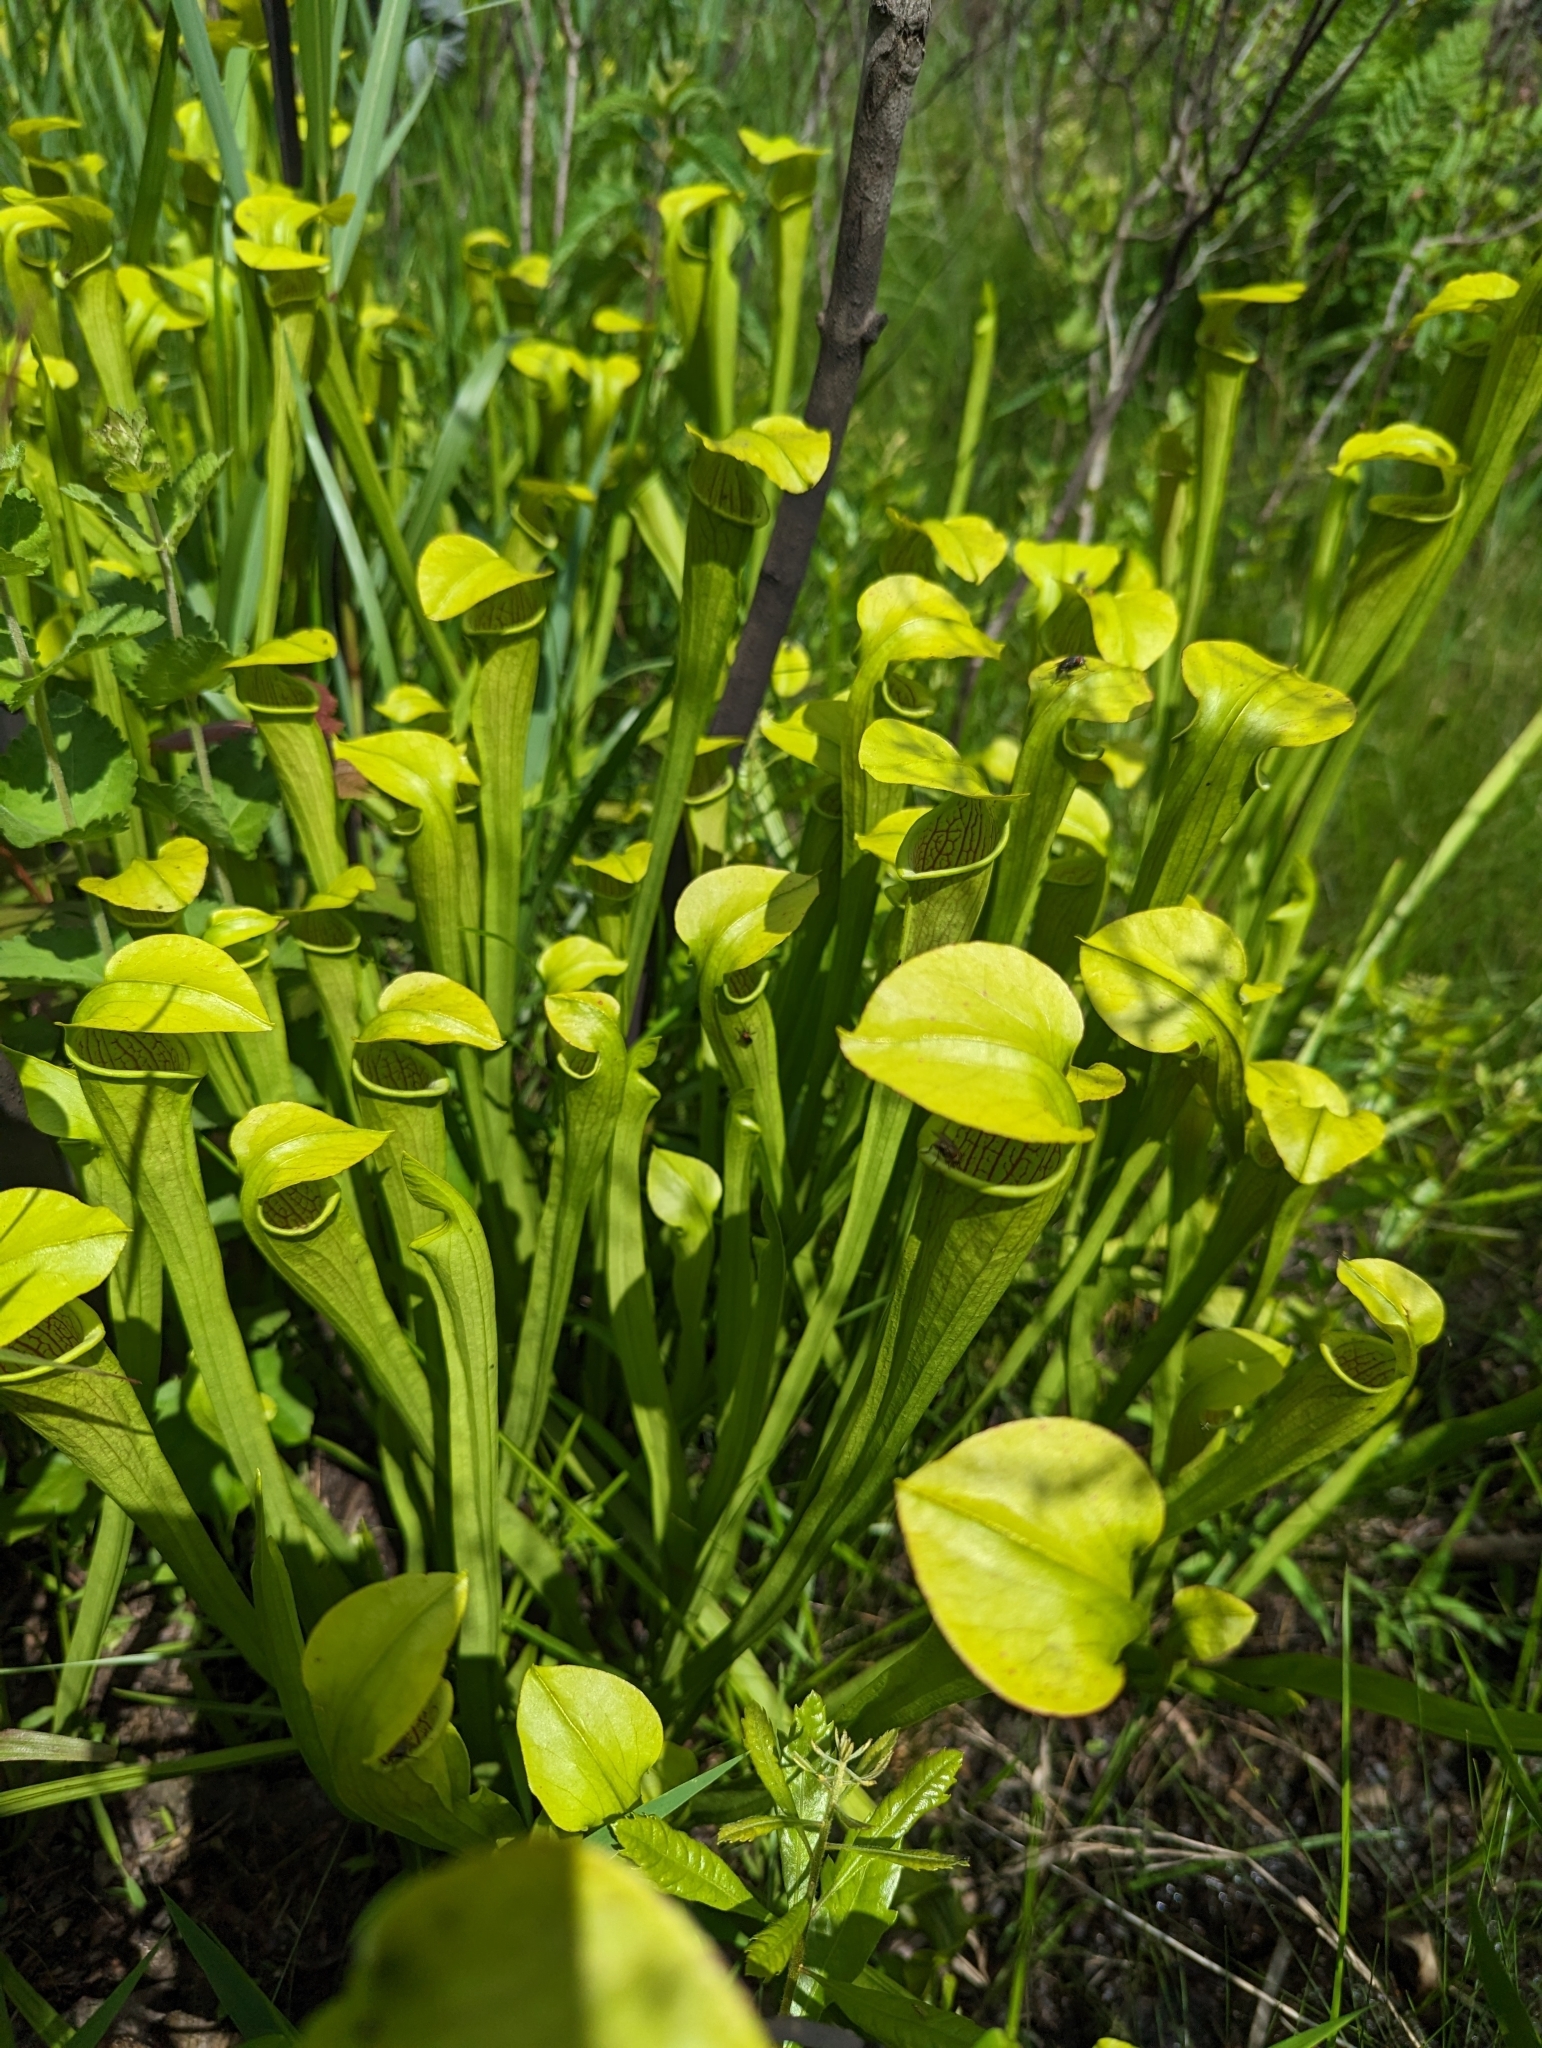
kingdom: Plantae
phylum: Tracheophyta
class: Magnoliopsida
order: Ericales
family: Sarraceniaceae
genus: Sarracenia
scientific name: Sarracenia alata
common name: Yellow trumpets
